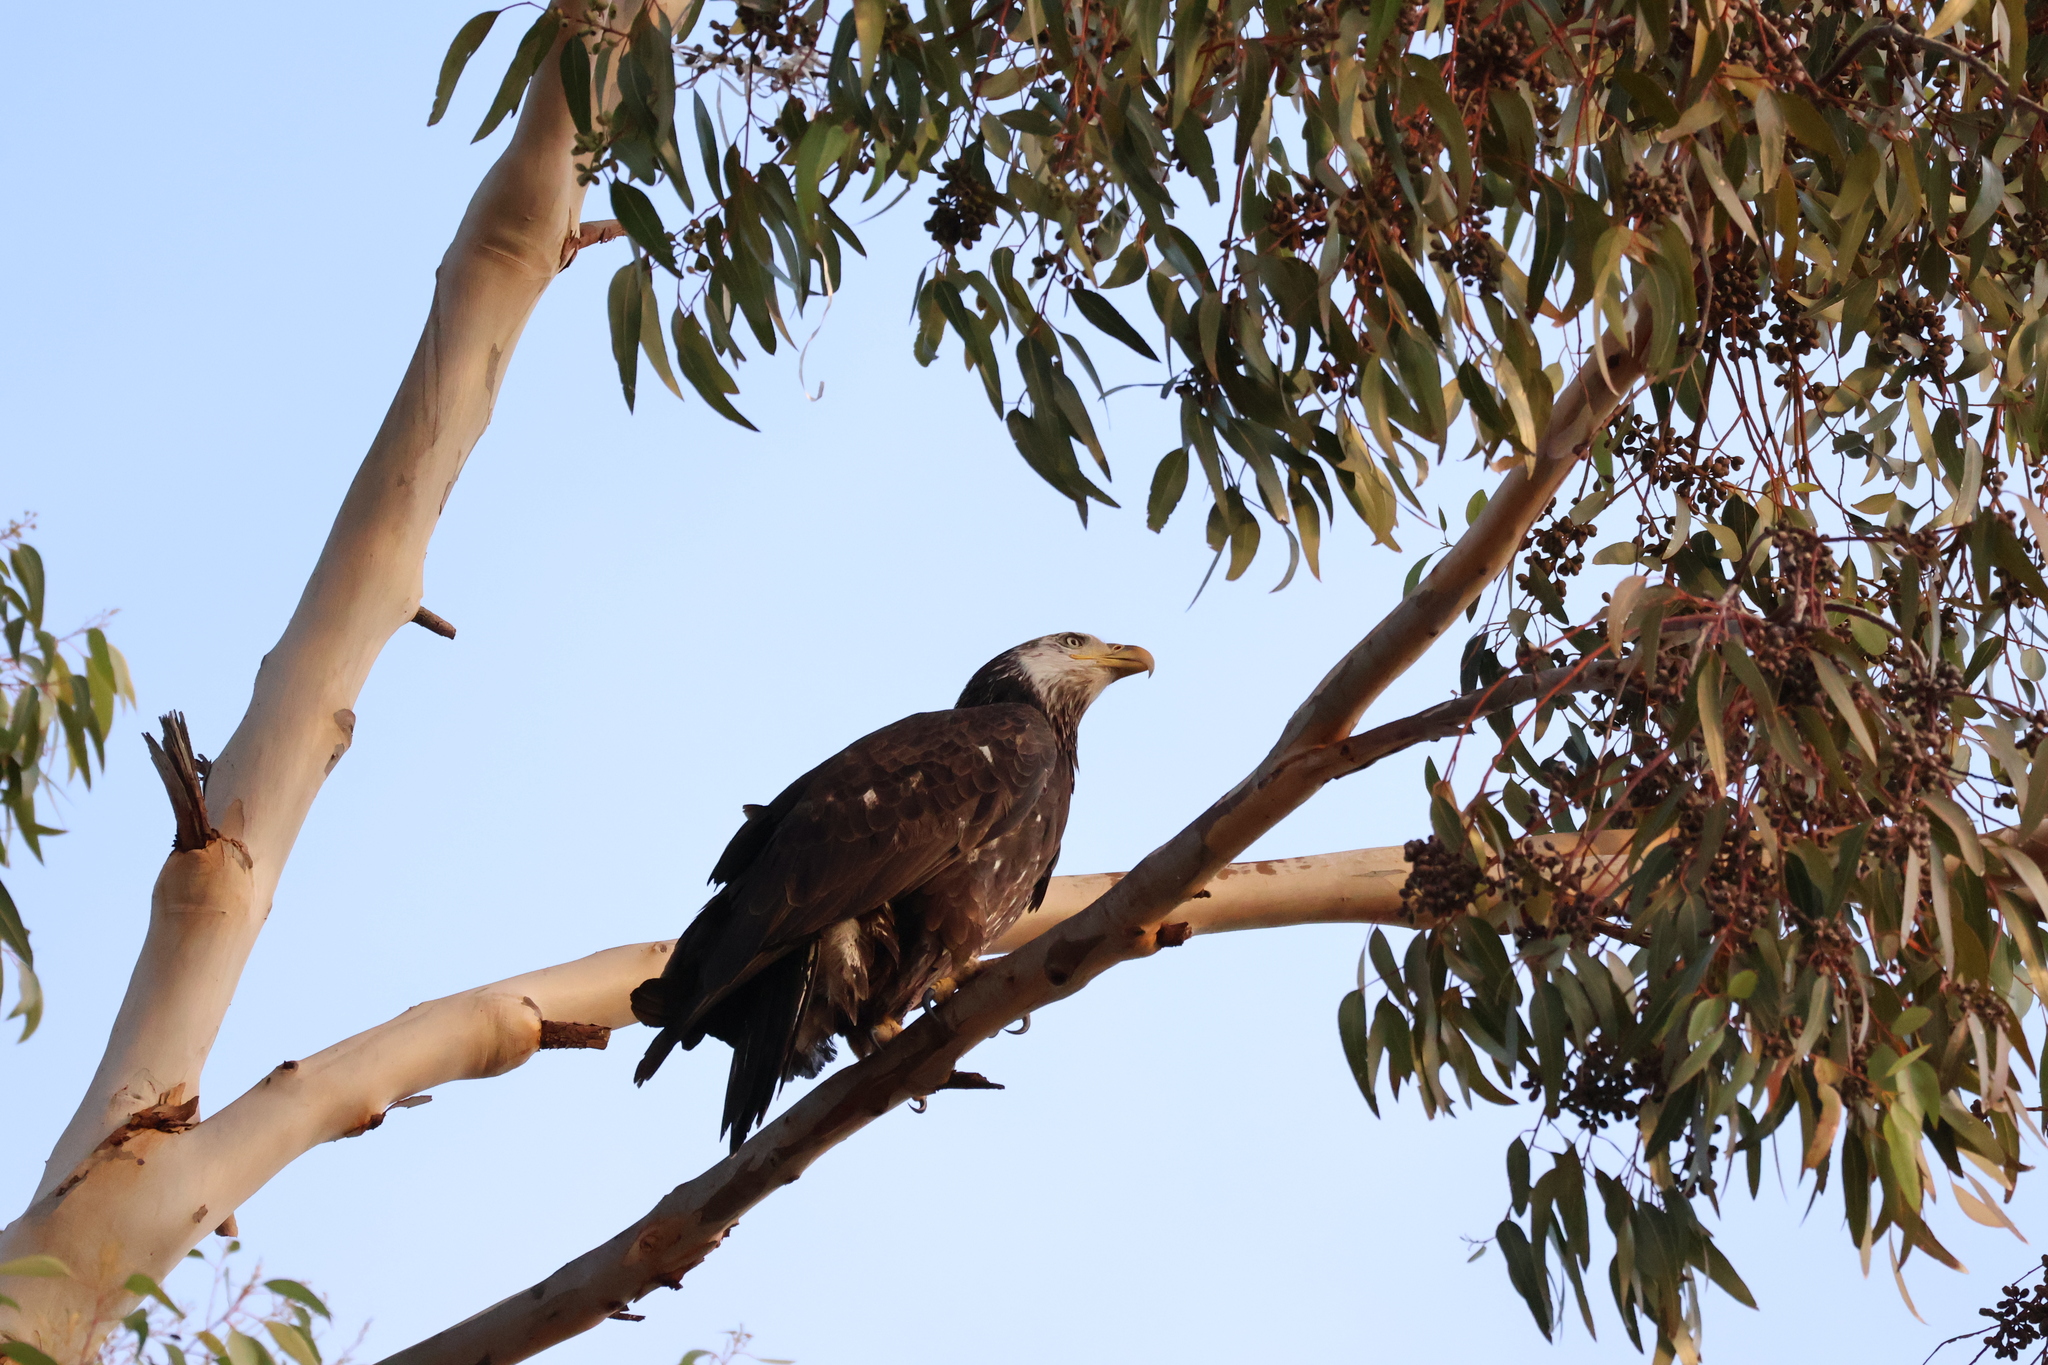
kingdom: Animalia
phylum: Chordata
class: Aves
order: Accipitriformes
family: Accipitridae
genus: Haliaeetus
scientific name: Haliaeetus leucocephalus
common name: Bald eagle
